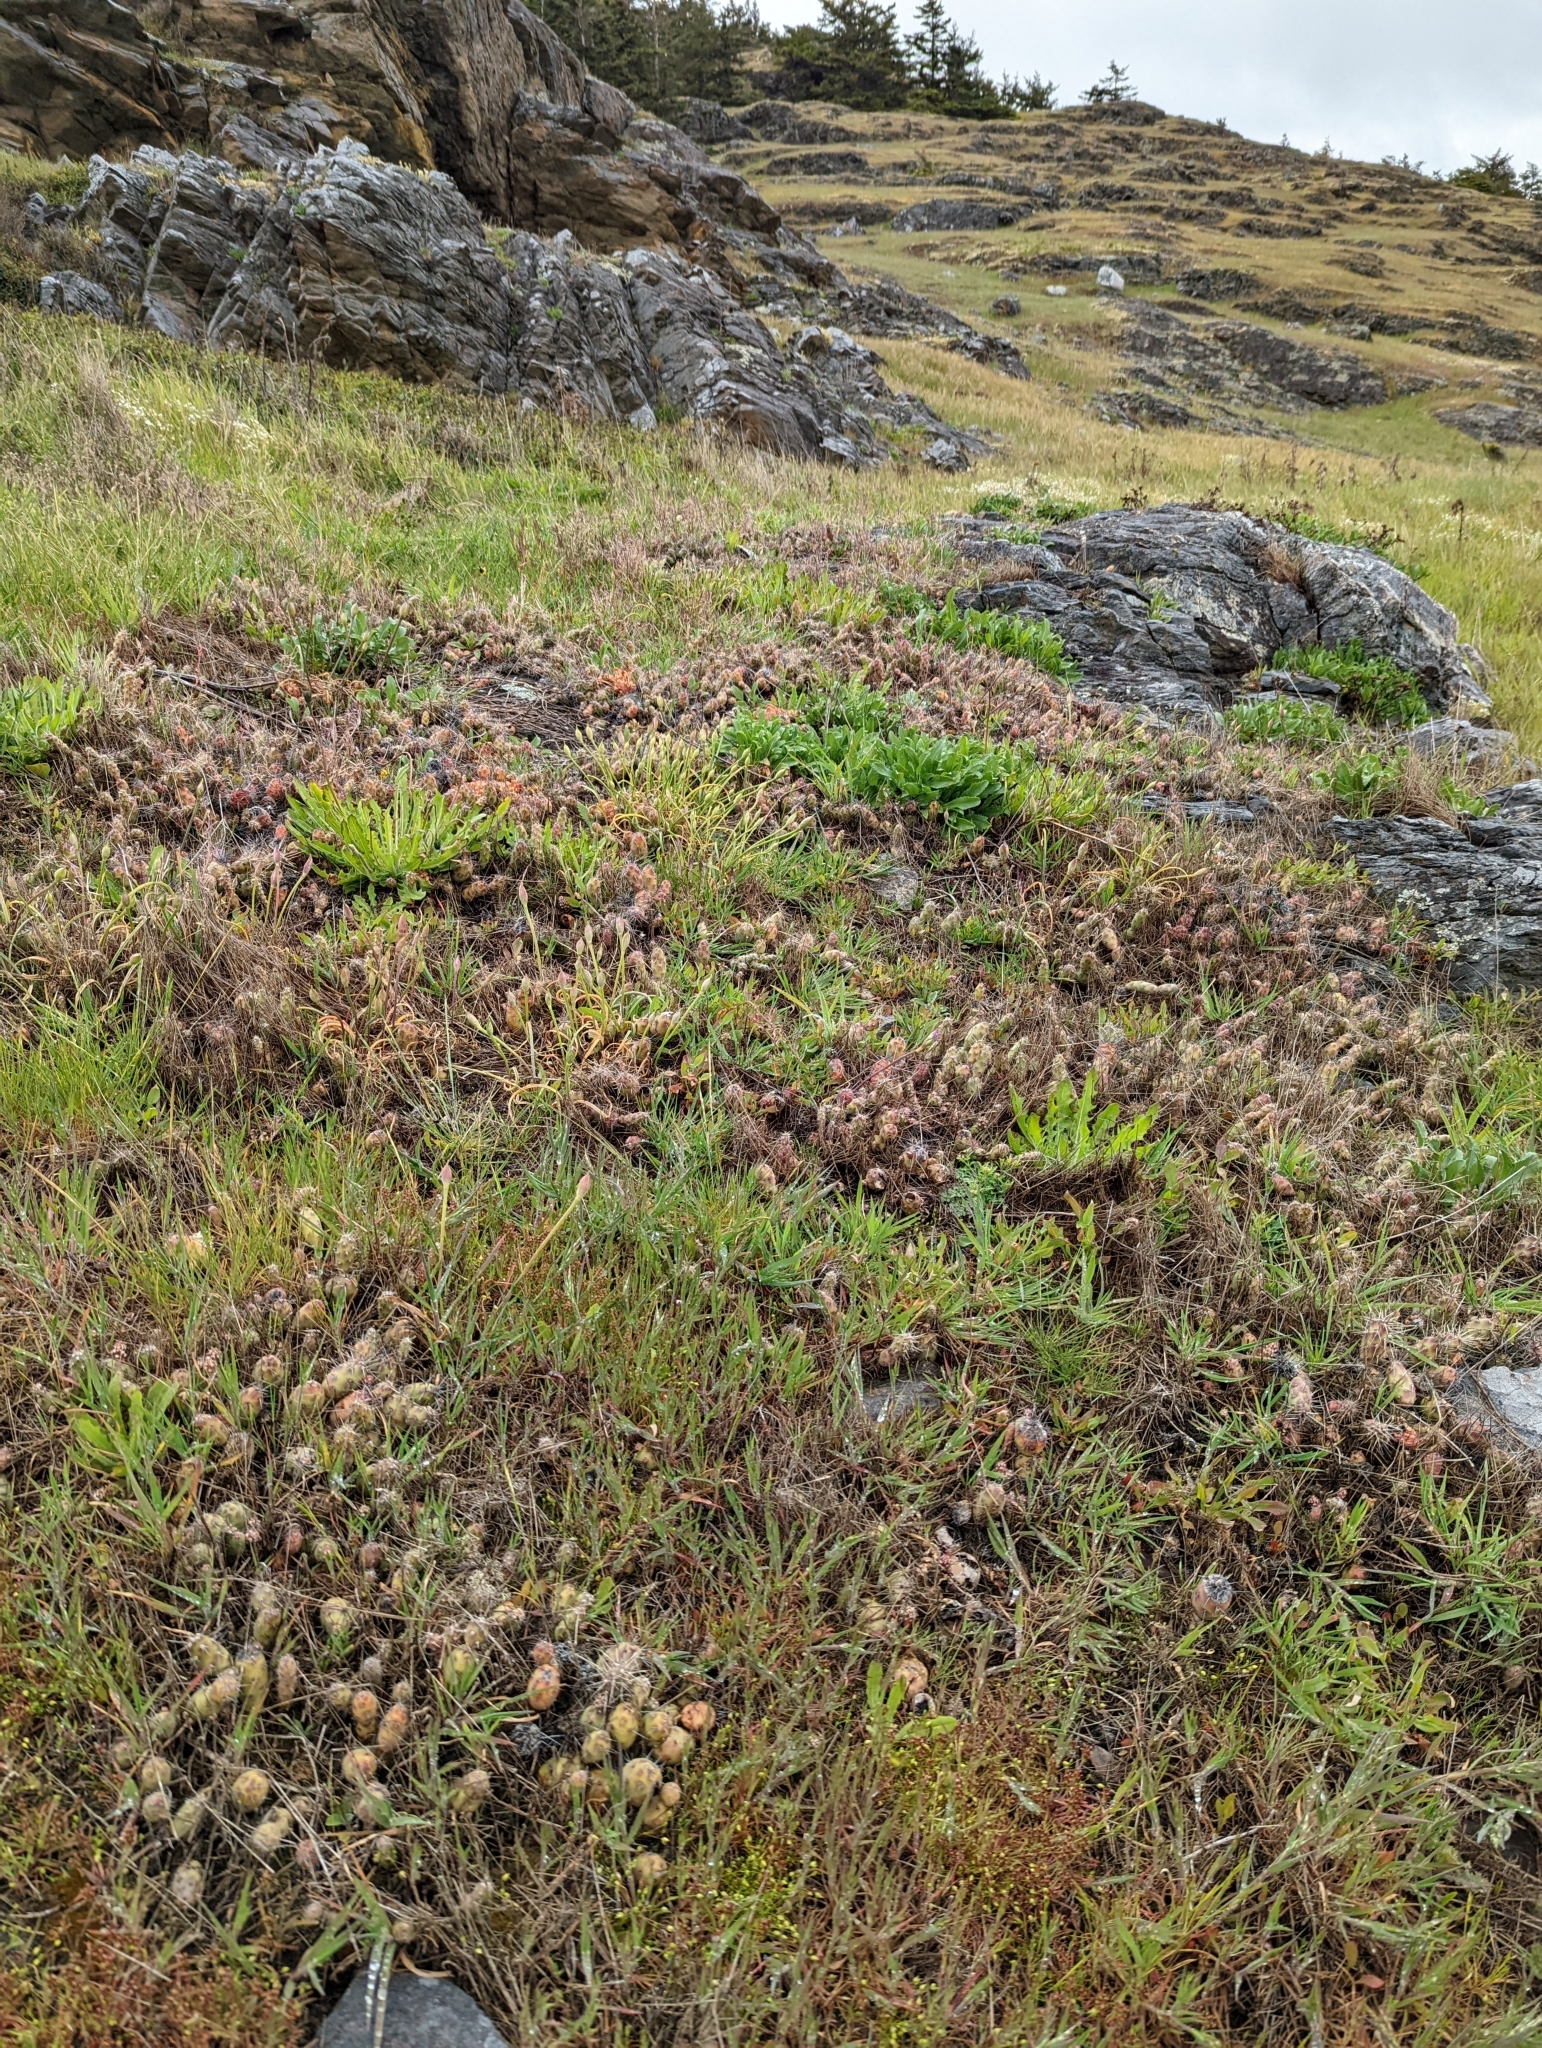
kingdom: Plantae
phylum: Tracheophyta
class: Magnoliopsida
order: Caryophyllales
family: Cactaceae
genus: Opuntia
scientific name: Opuntia fragilis
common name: Brittle cactus
